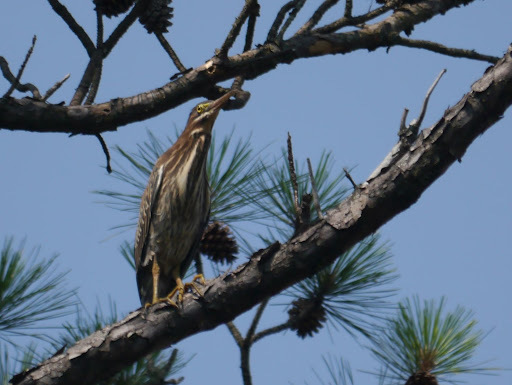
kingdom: Animalia
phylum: Chordata
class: Aves
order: Pelecaniformes
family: Ardeidae
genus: Butorides
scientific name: Butorides virescens
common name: Green heron
